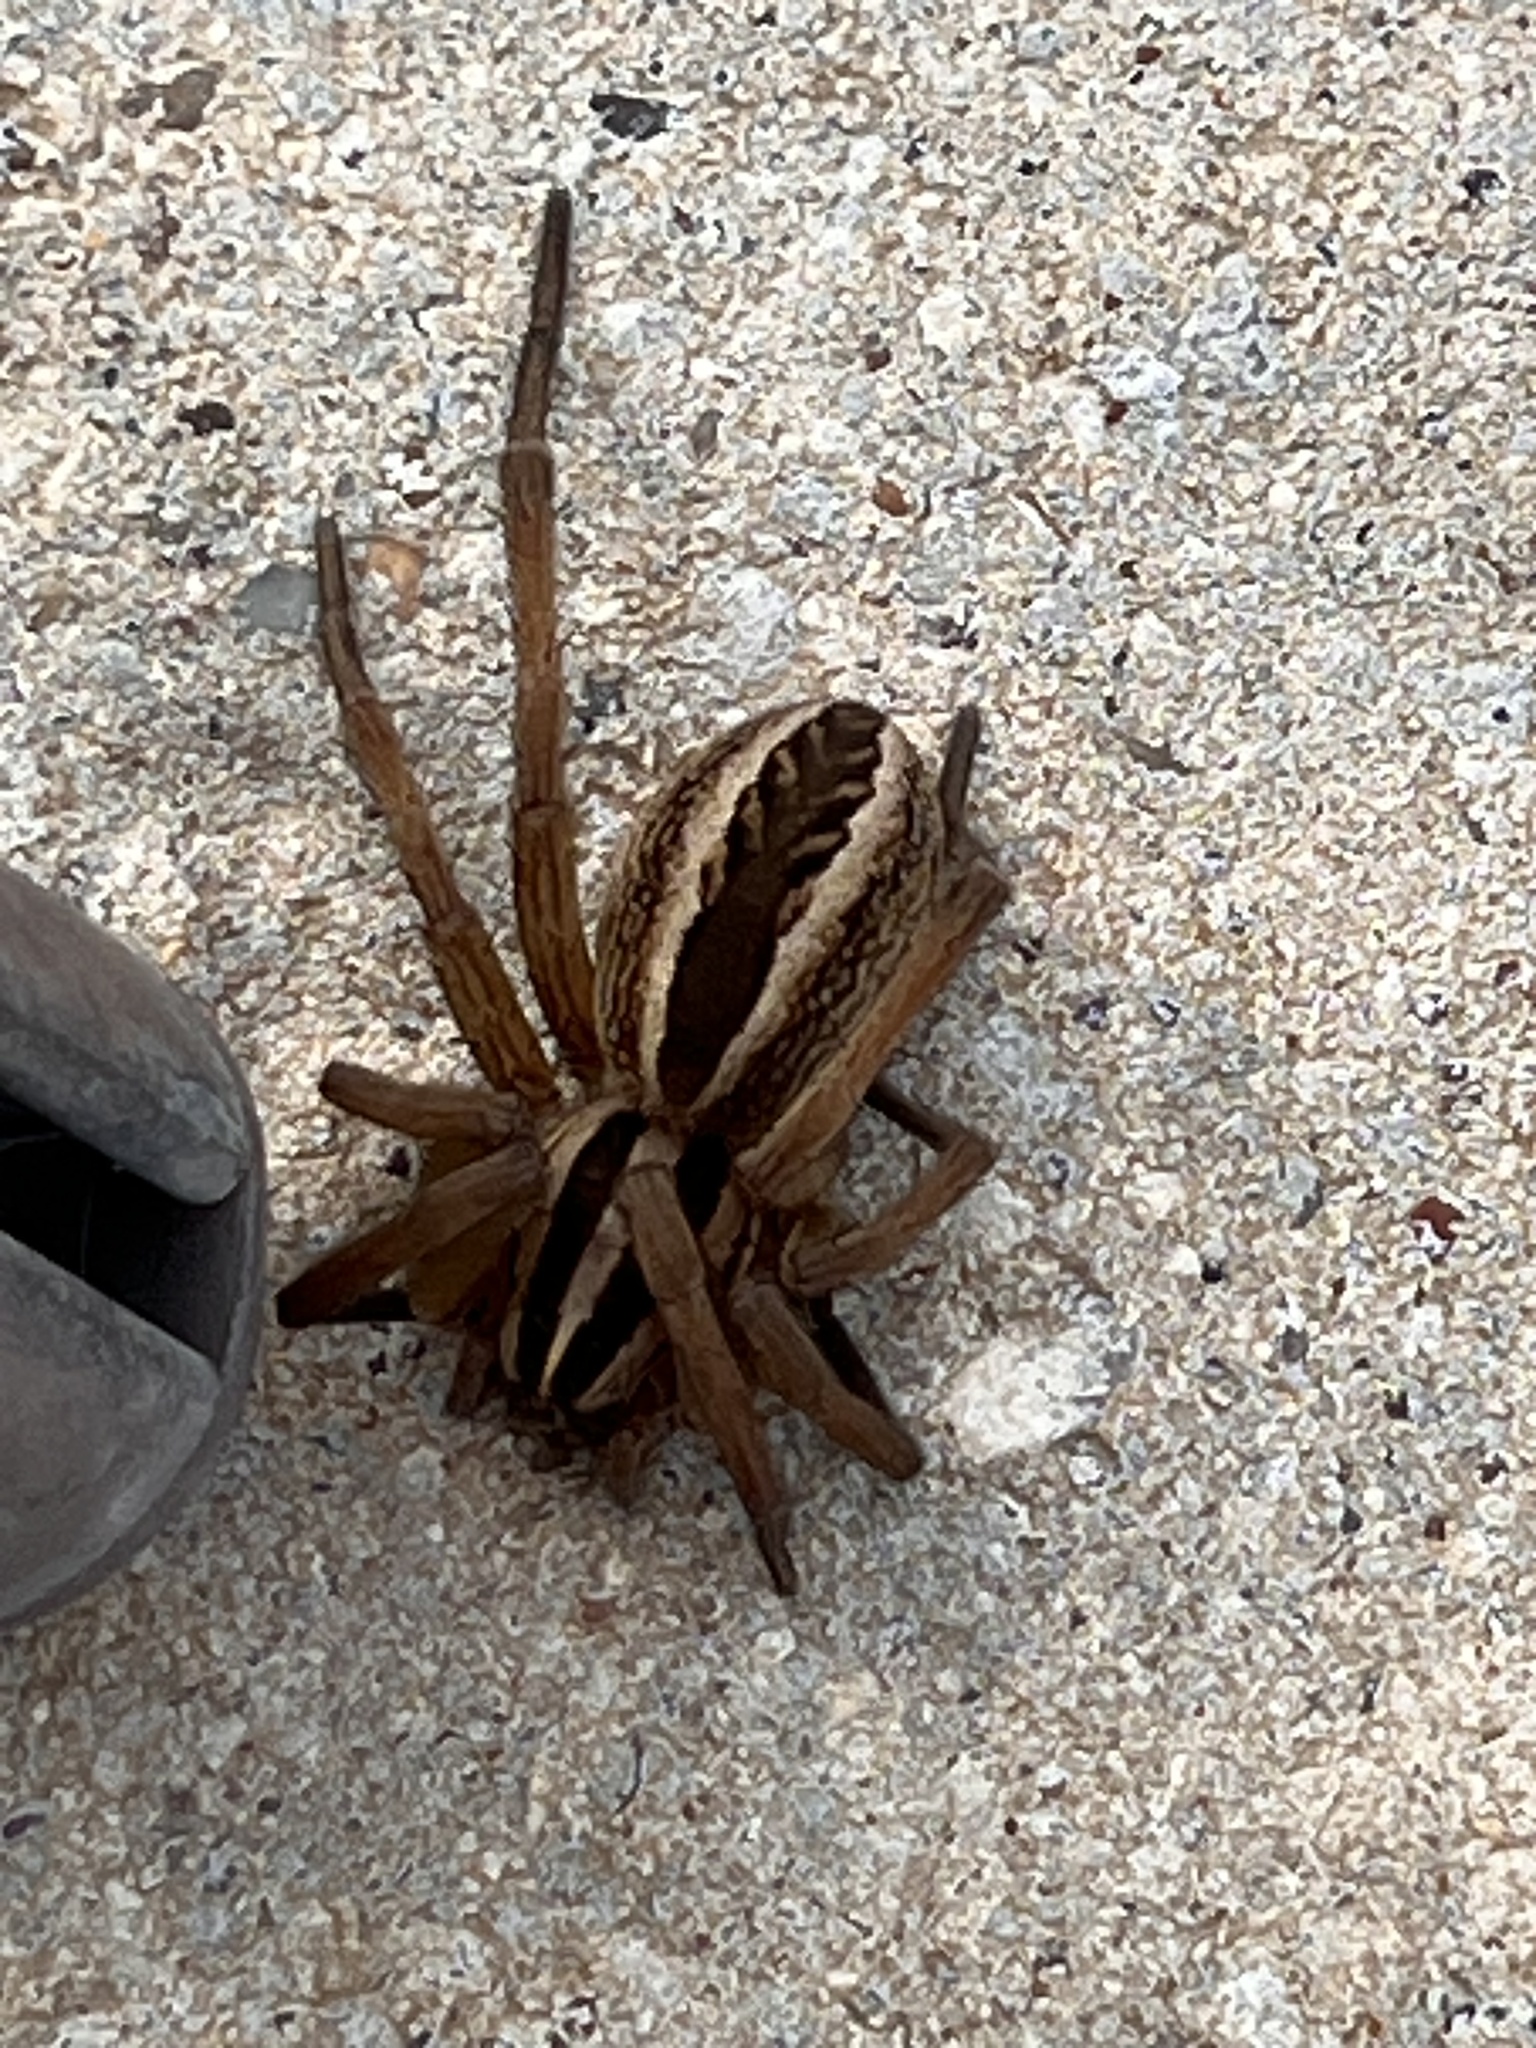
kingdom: Animalia
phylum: Arthropoda
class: Arachnida
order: Araneae
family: Lycosidae
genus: Rabidosa
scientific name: Rabidosa rabida
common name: Rabid wolf spider
